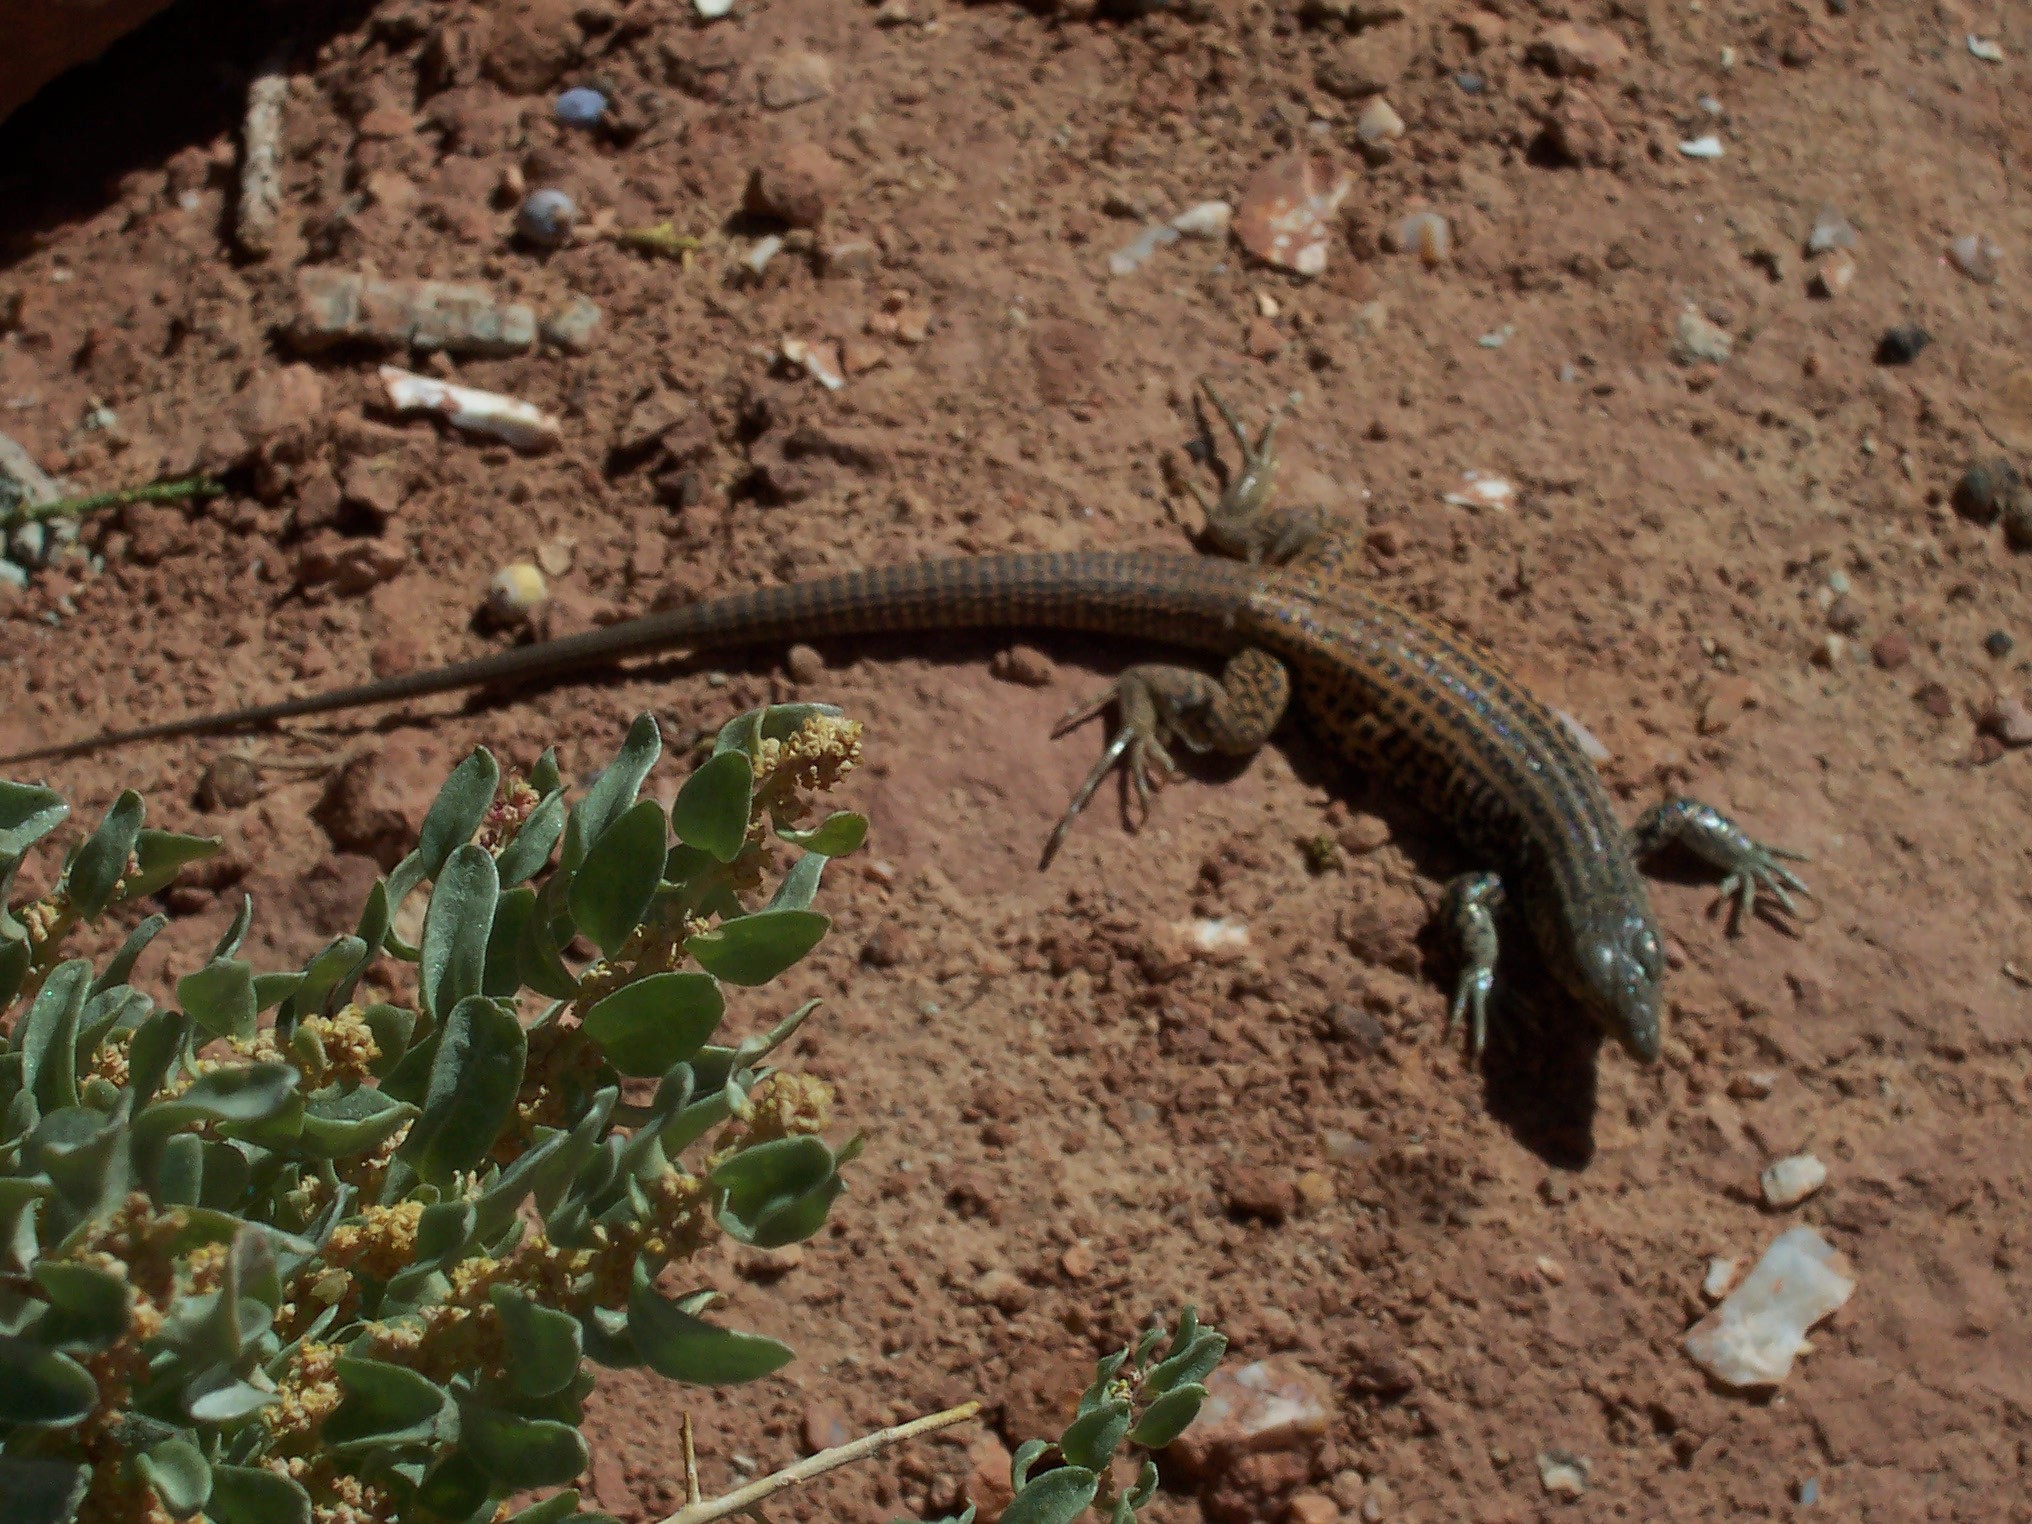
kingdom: Animalia
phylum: Chordata
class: Squamata
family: Teiidae
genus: Aspidoscelis
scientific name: Aspidoscelis tigris
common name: Tiger whiptail
